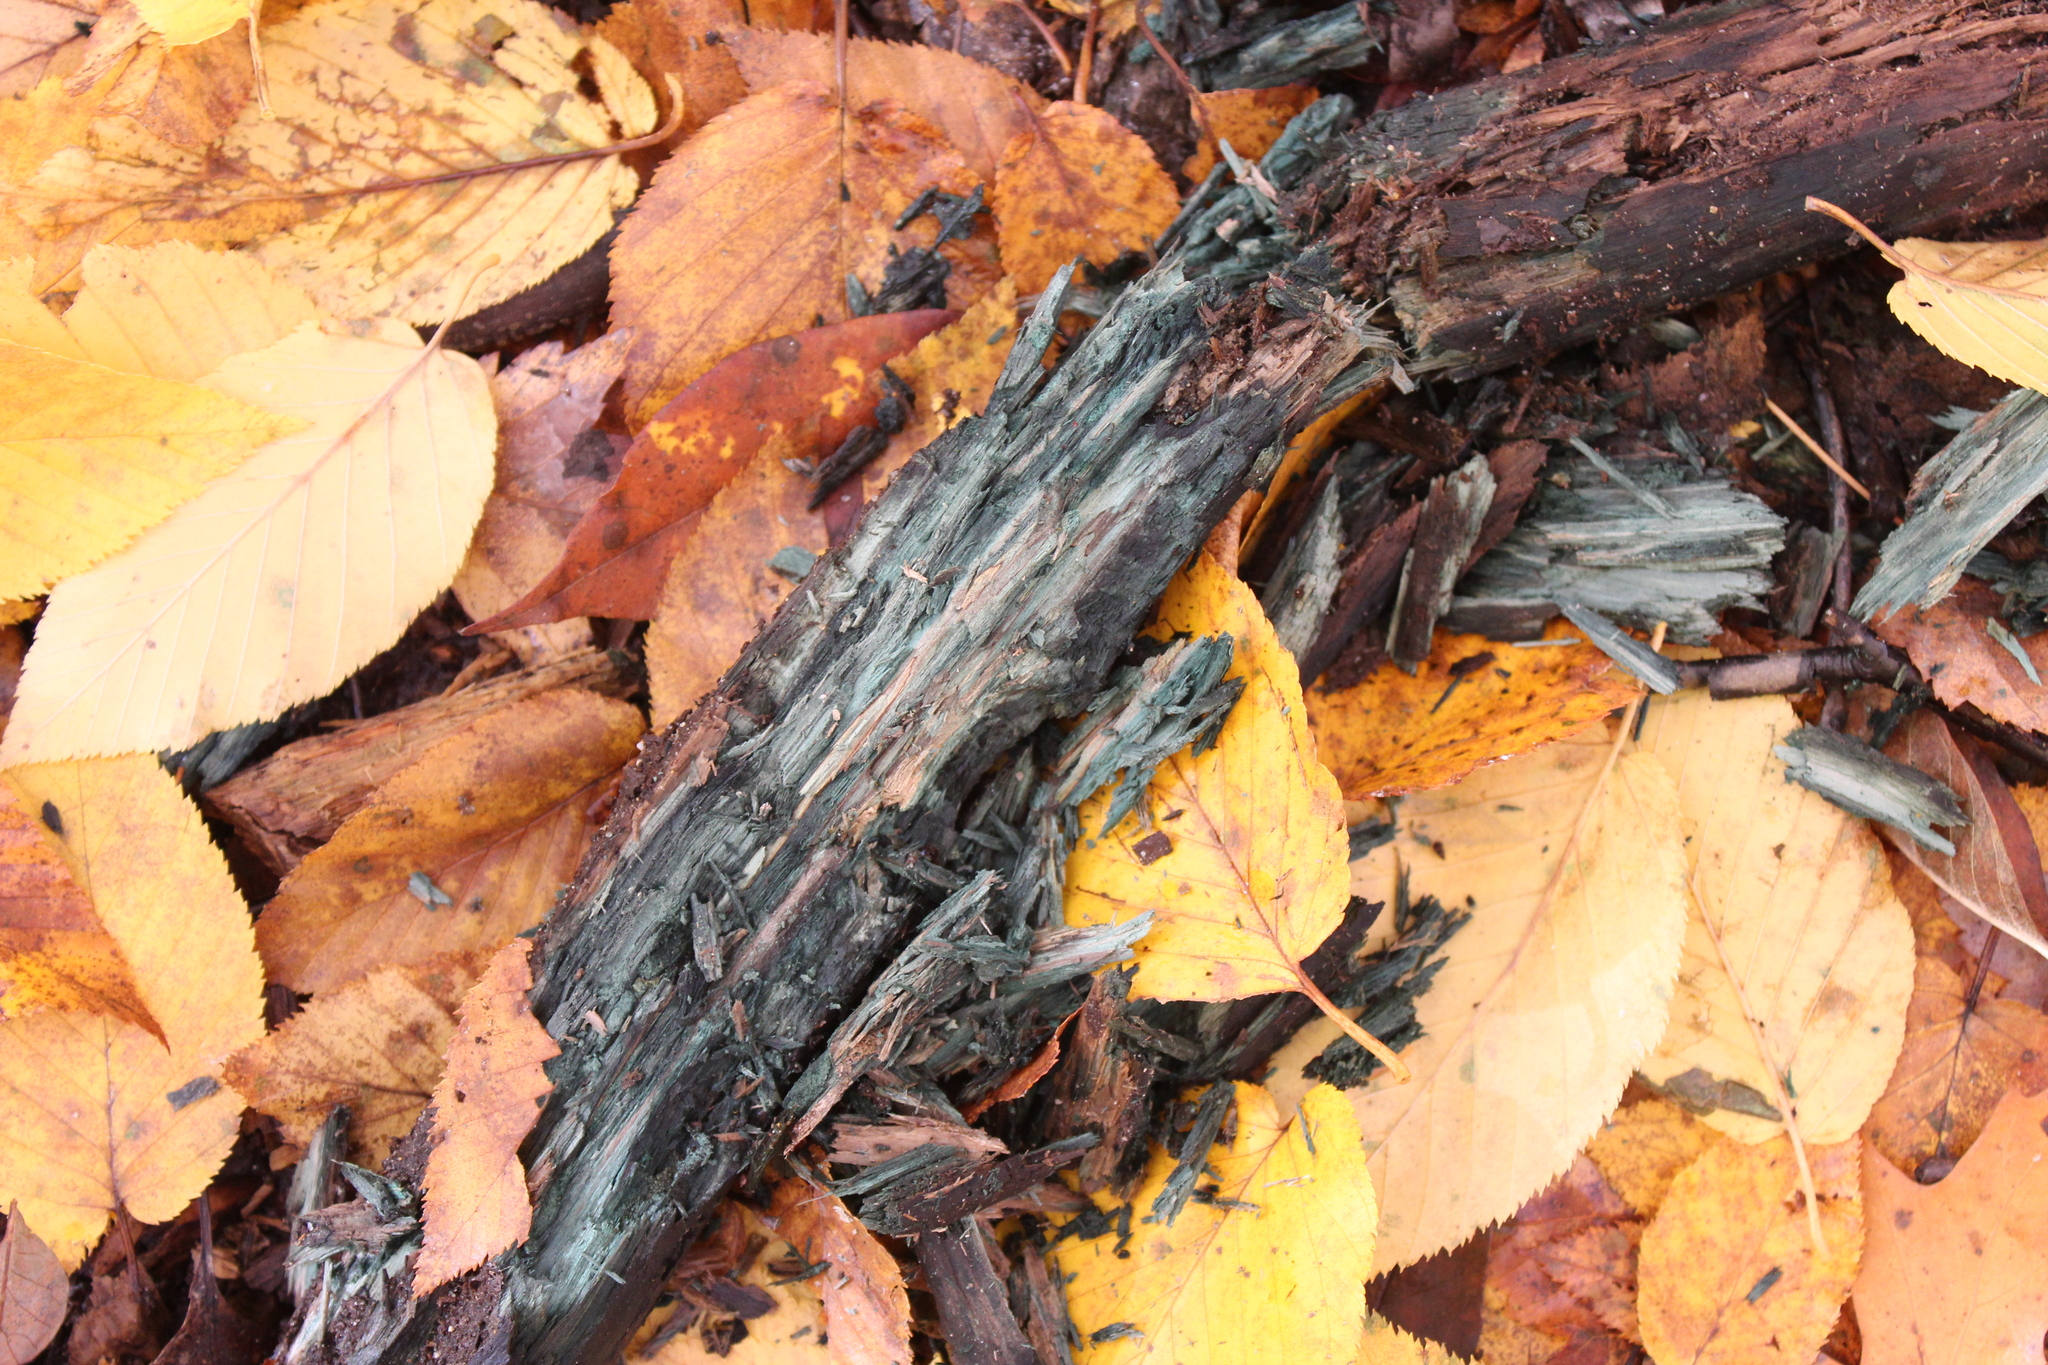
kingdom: Fungi
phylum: Ascomycota
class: Leotiomycetes
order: Helotiales
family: Chlorociboriaceae
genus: Chlorociboria
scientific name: Chlorociboria
